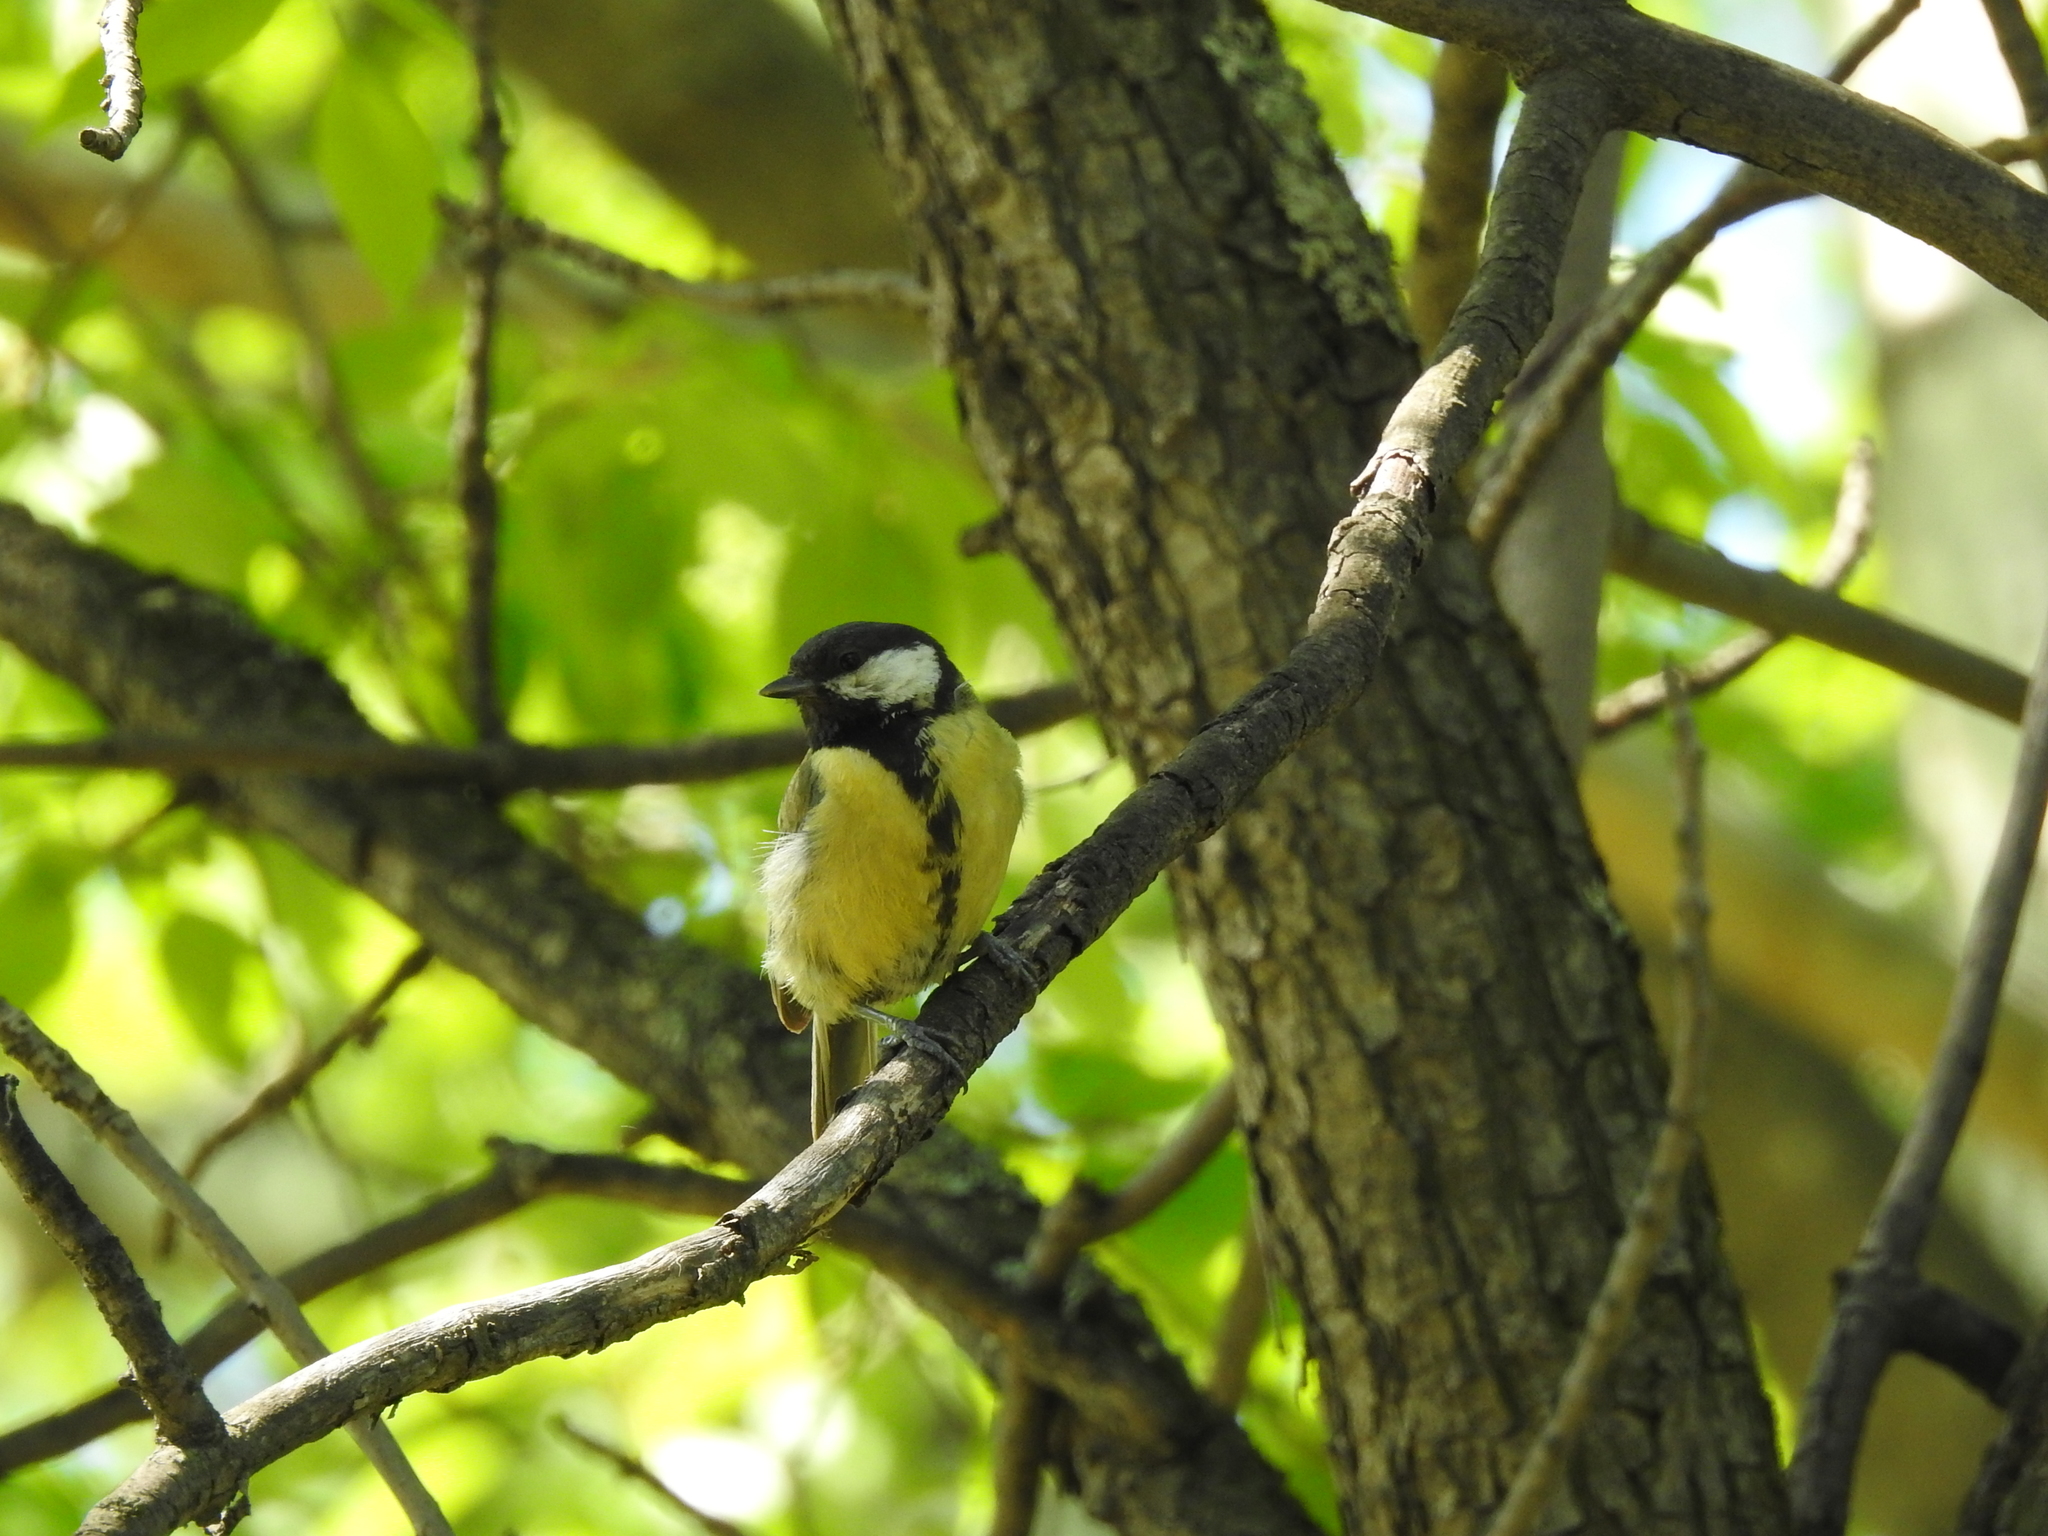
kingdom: Animalia
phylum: Chordata
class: Aves
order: Passeriformes
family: Paridae
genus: Parus
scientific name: Parus major
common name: Great tit
